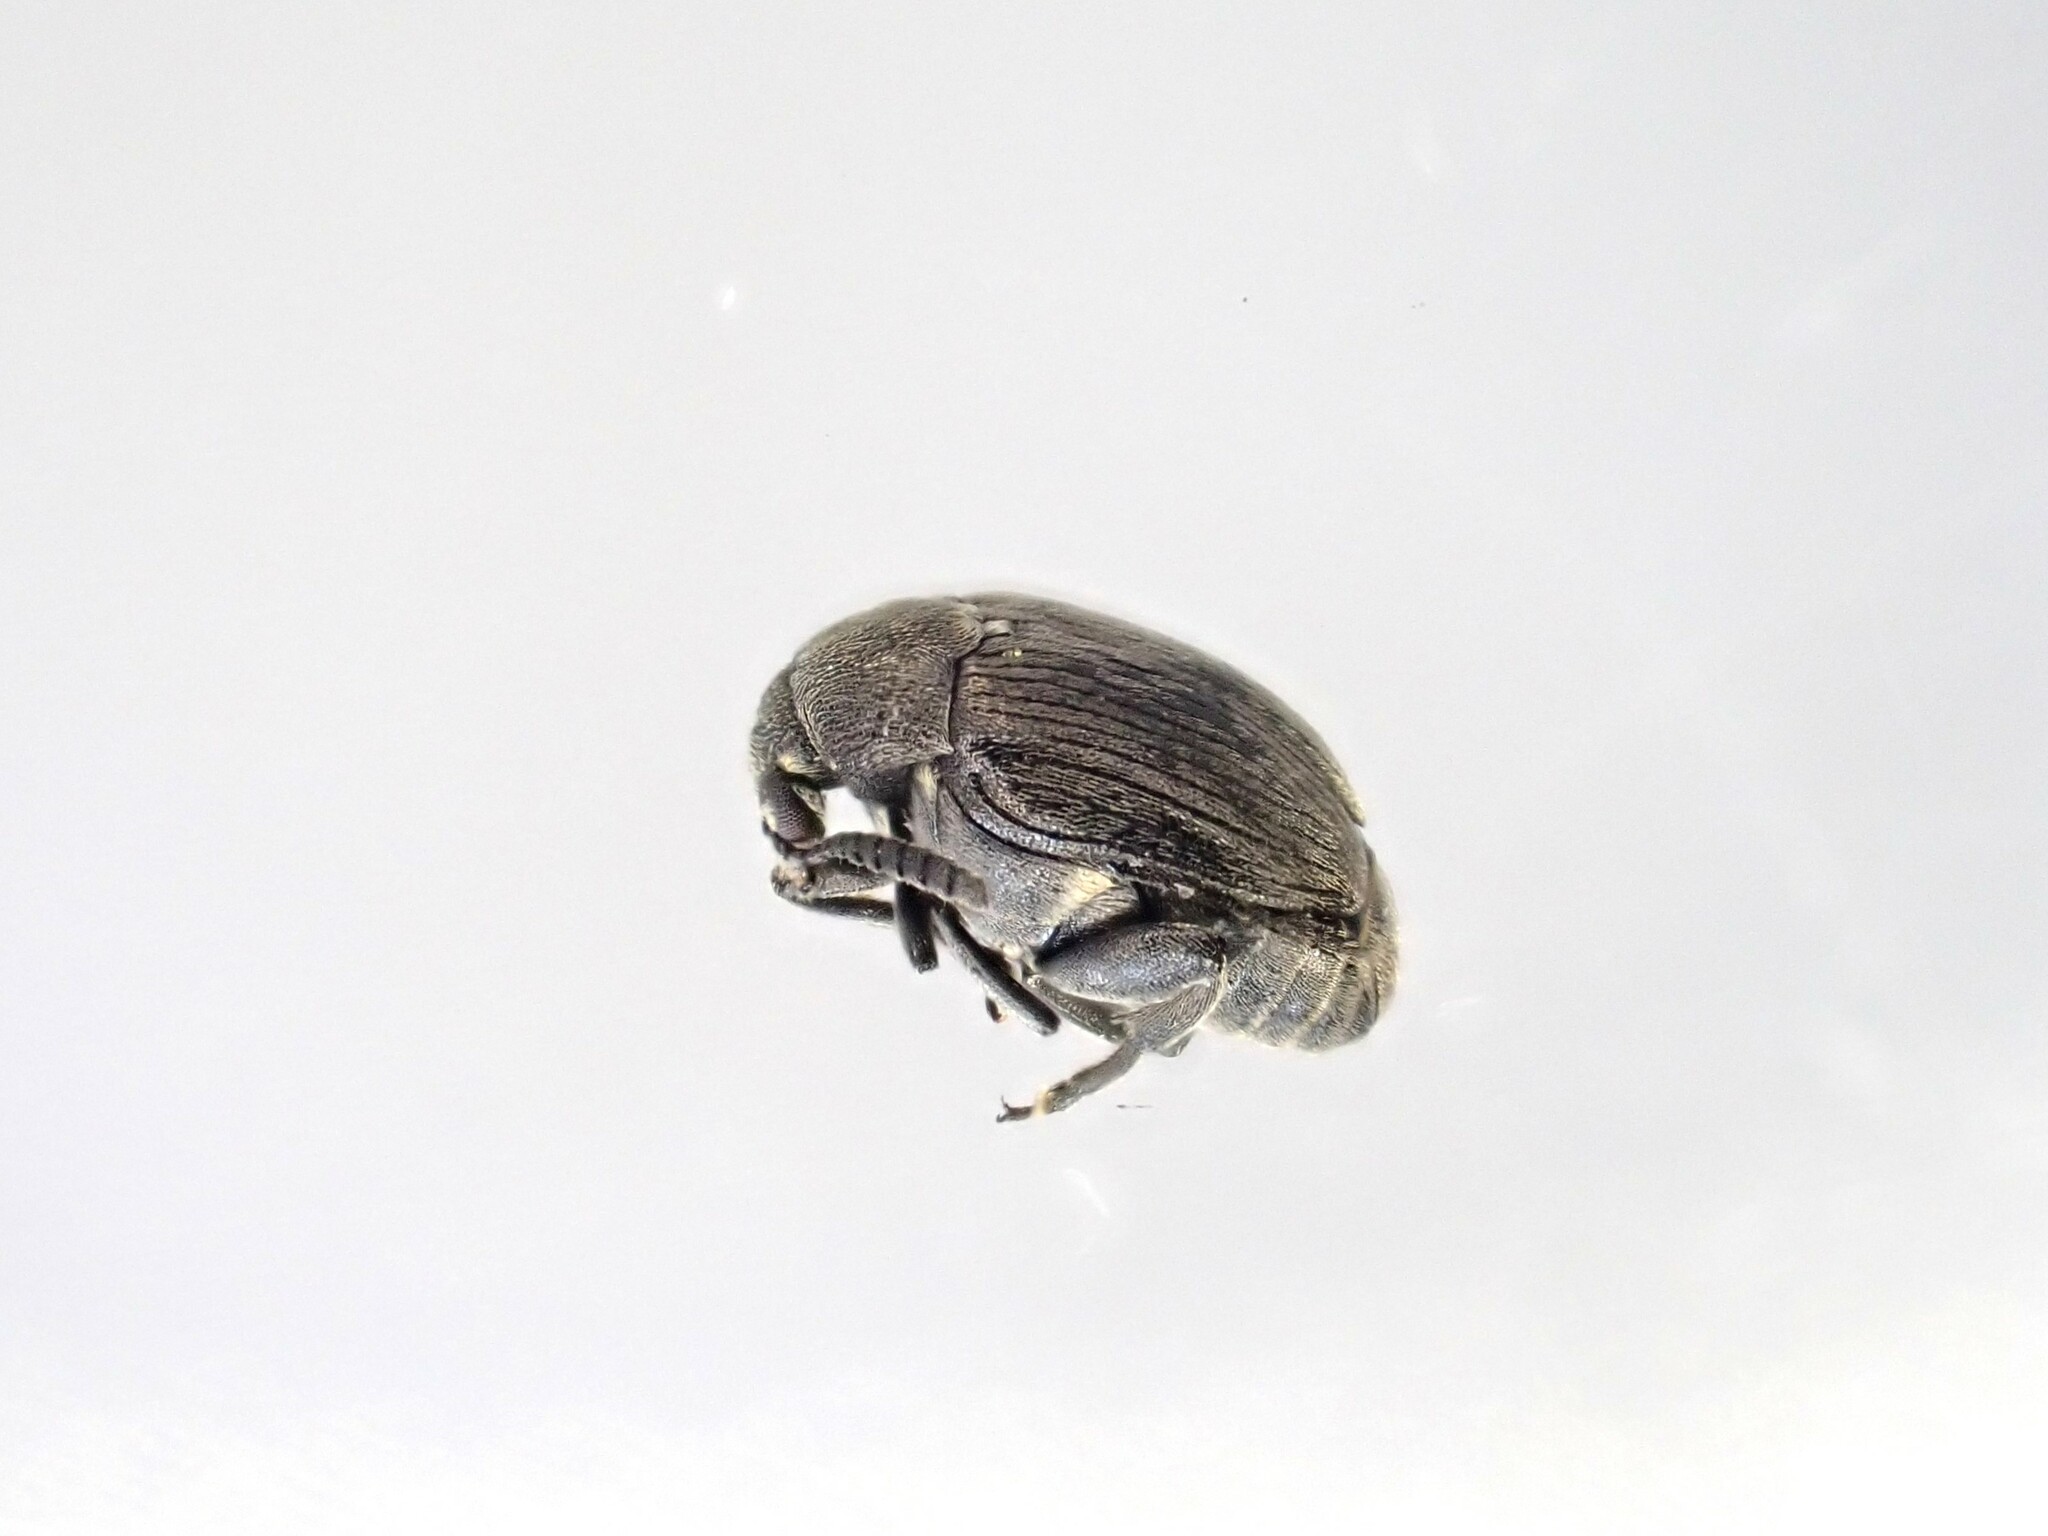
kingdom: Animalia
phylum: Arthropoda
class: Insecta
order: Coleoptera
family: Chrysomelidae
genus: Bruchidius
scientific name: Bruchidius villosus
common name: Scotch broom bruchid
